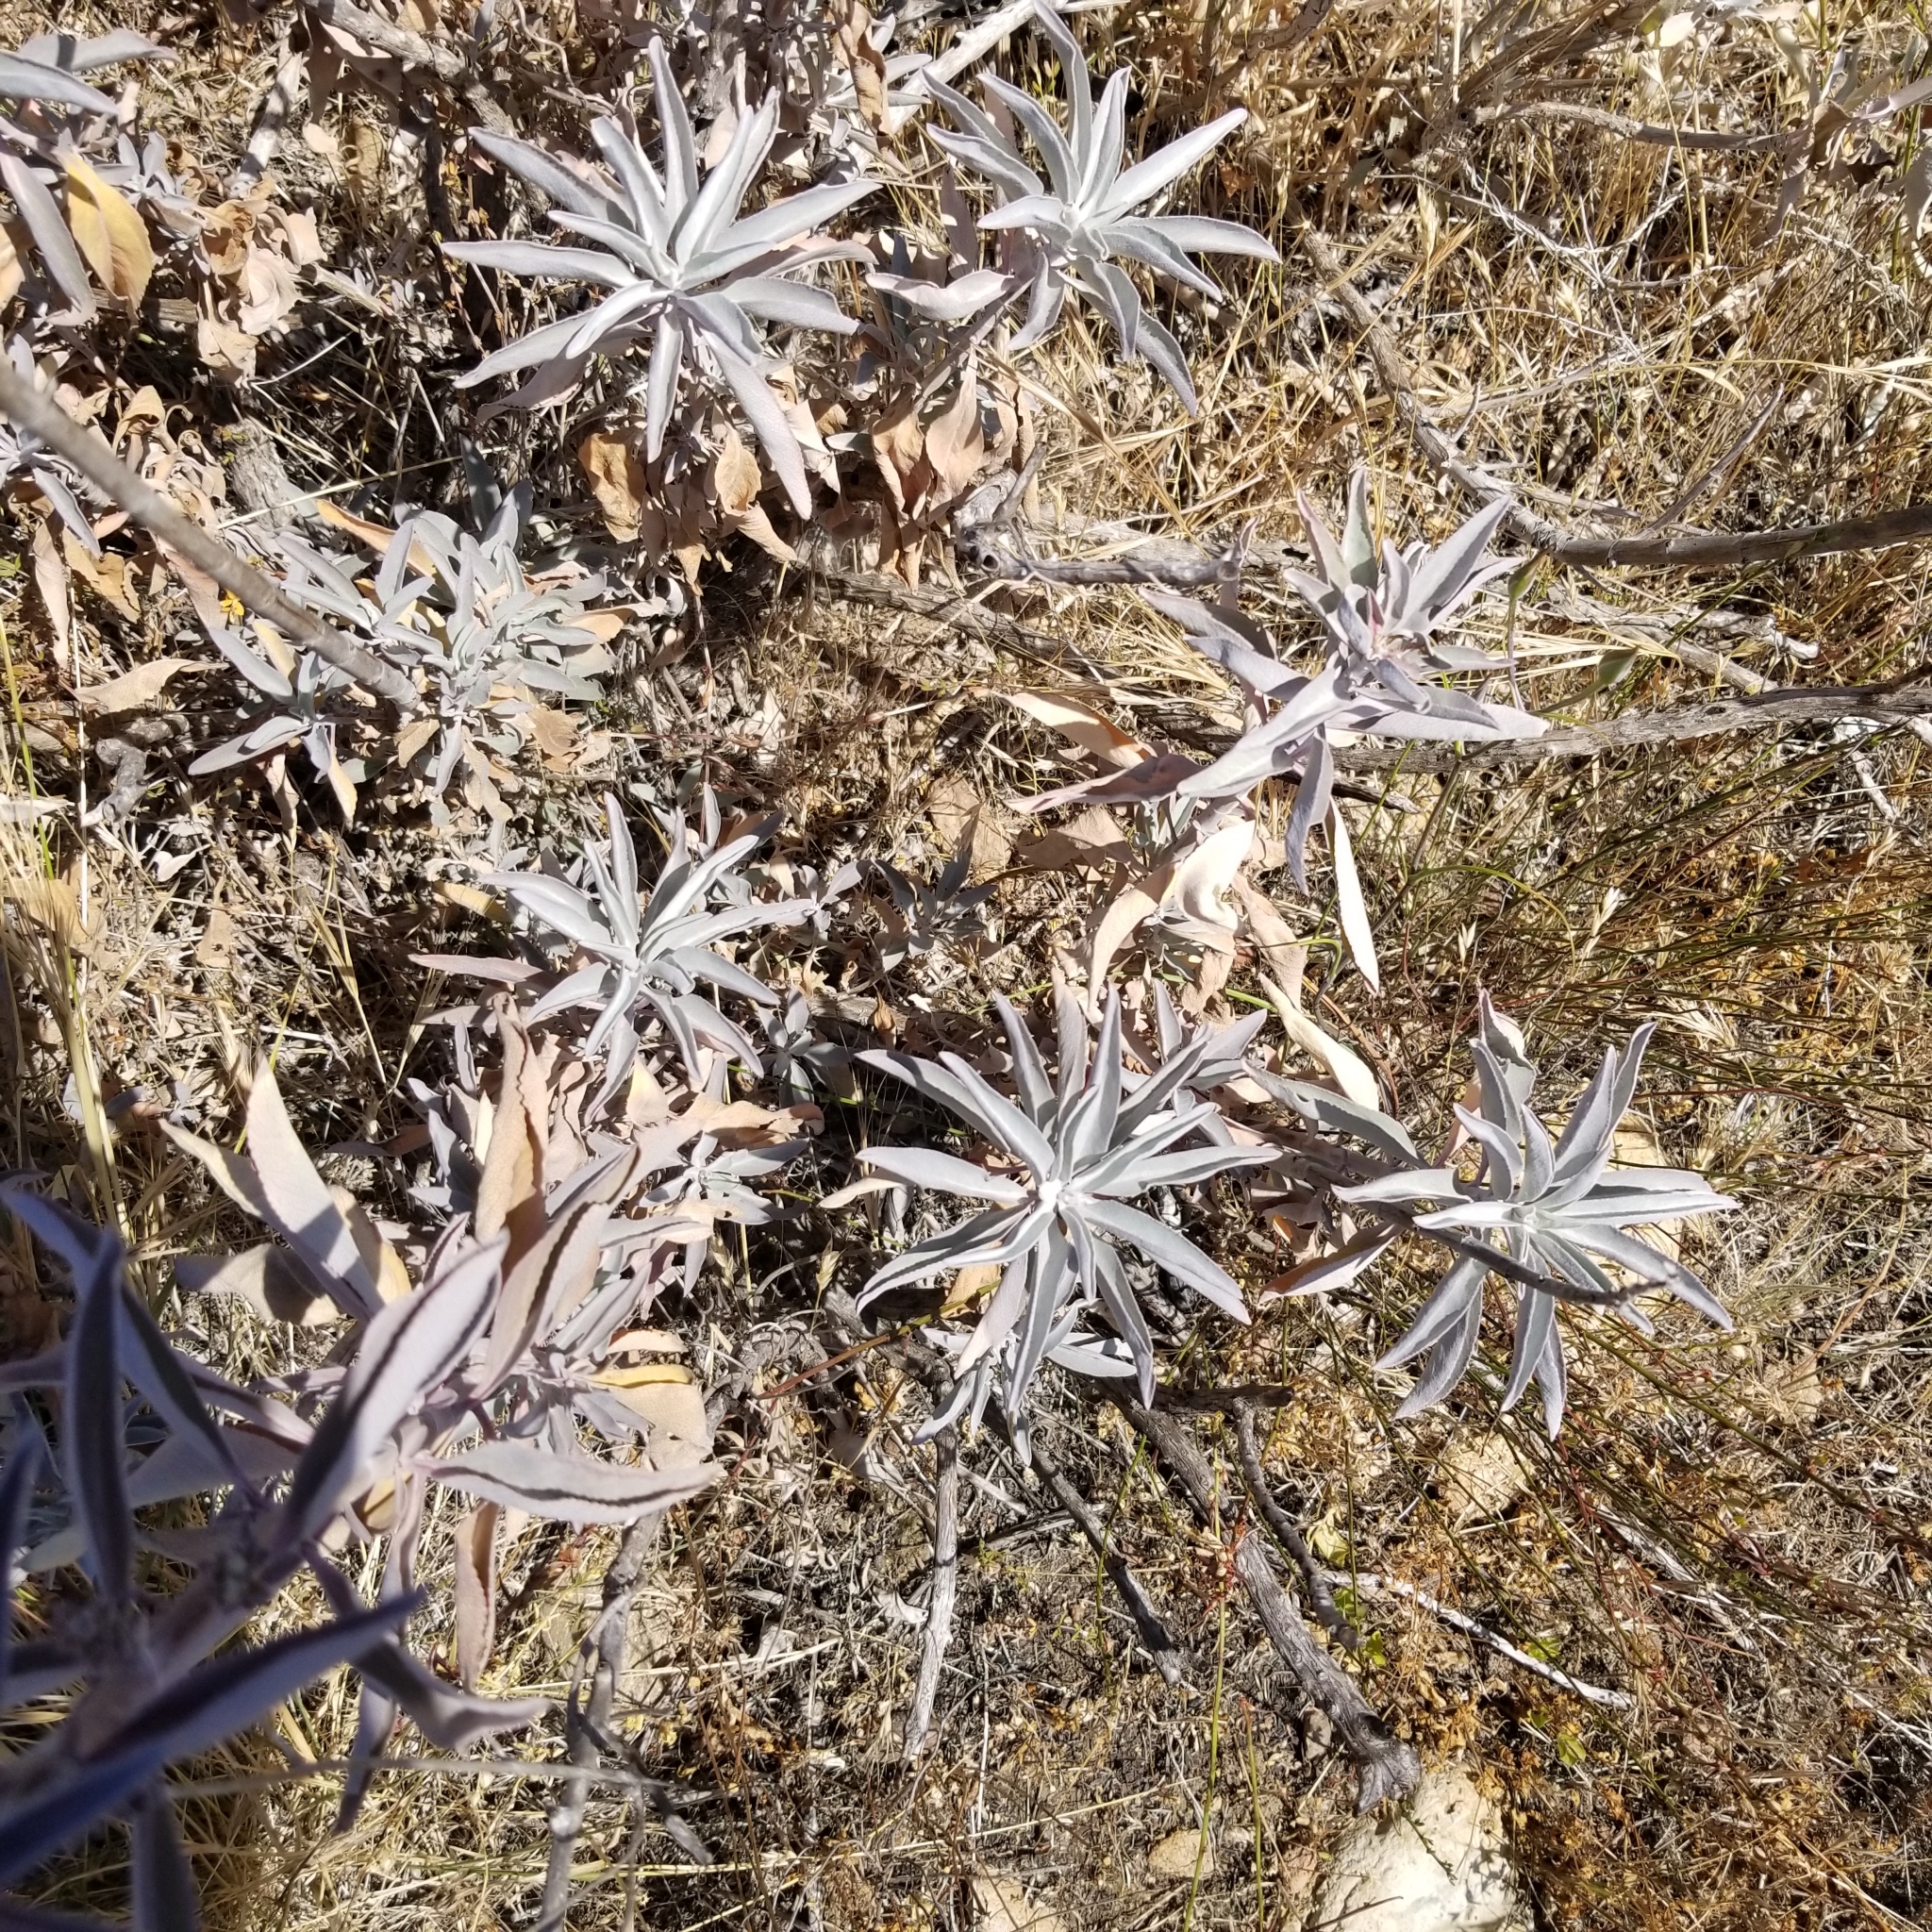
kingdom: Plantae
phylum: Tracheophyta
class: Magnoliopsida
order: Lamiales
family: Lamiaceae
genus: Salvia
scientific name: Salvia apiana
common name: White sage
